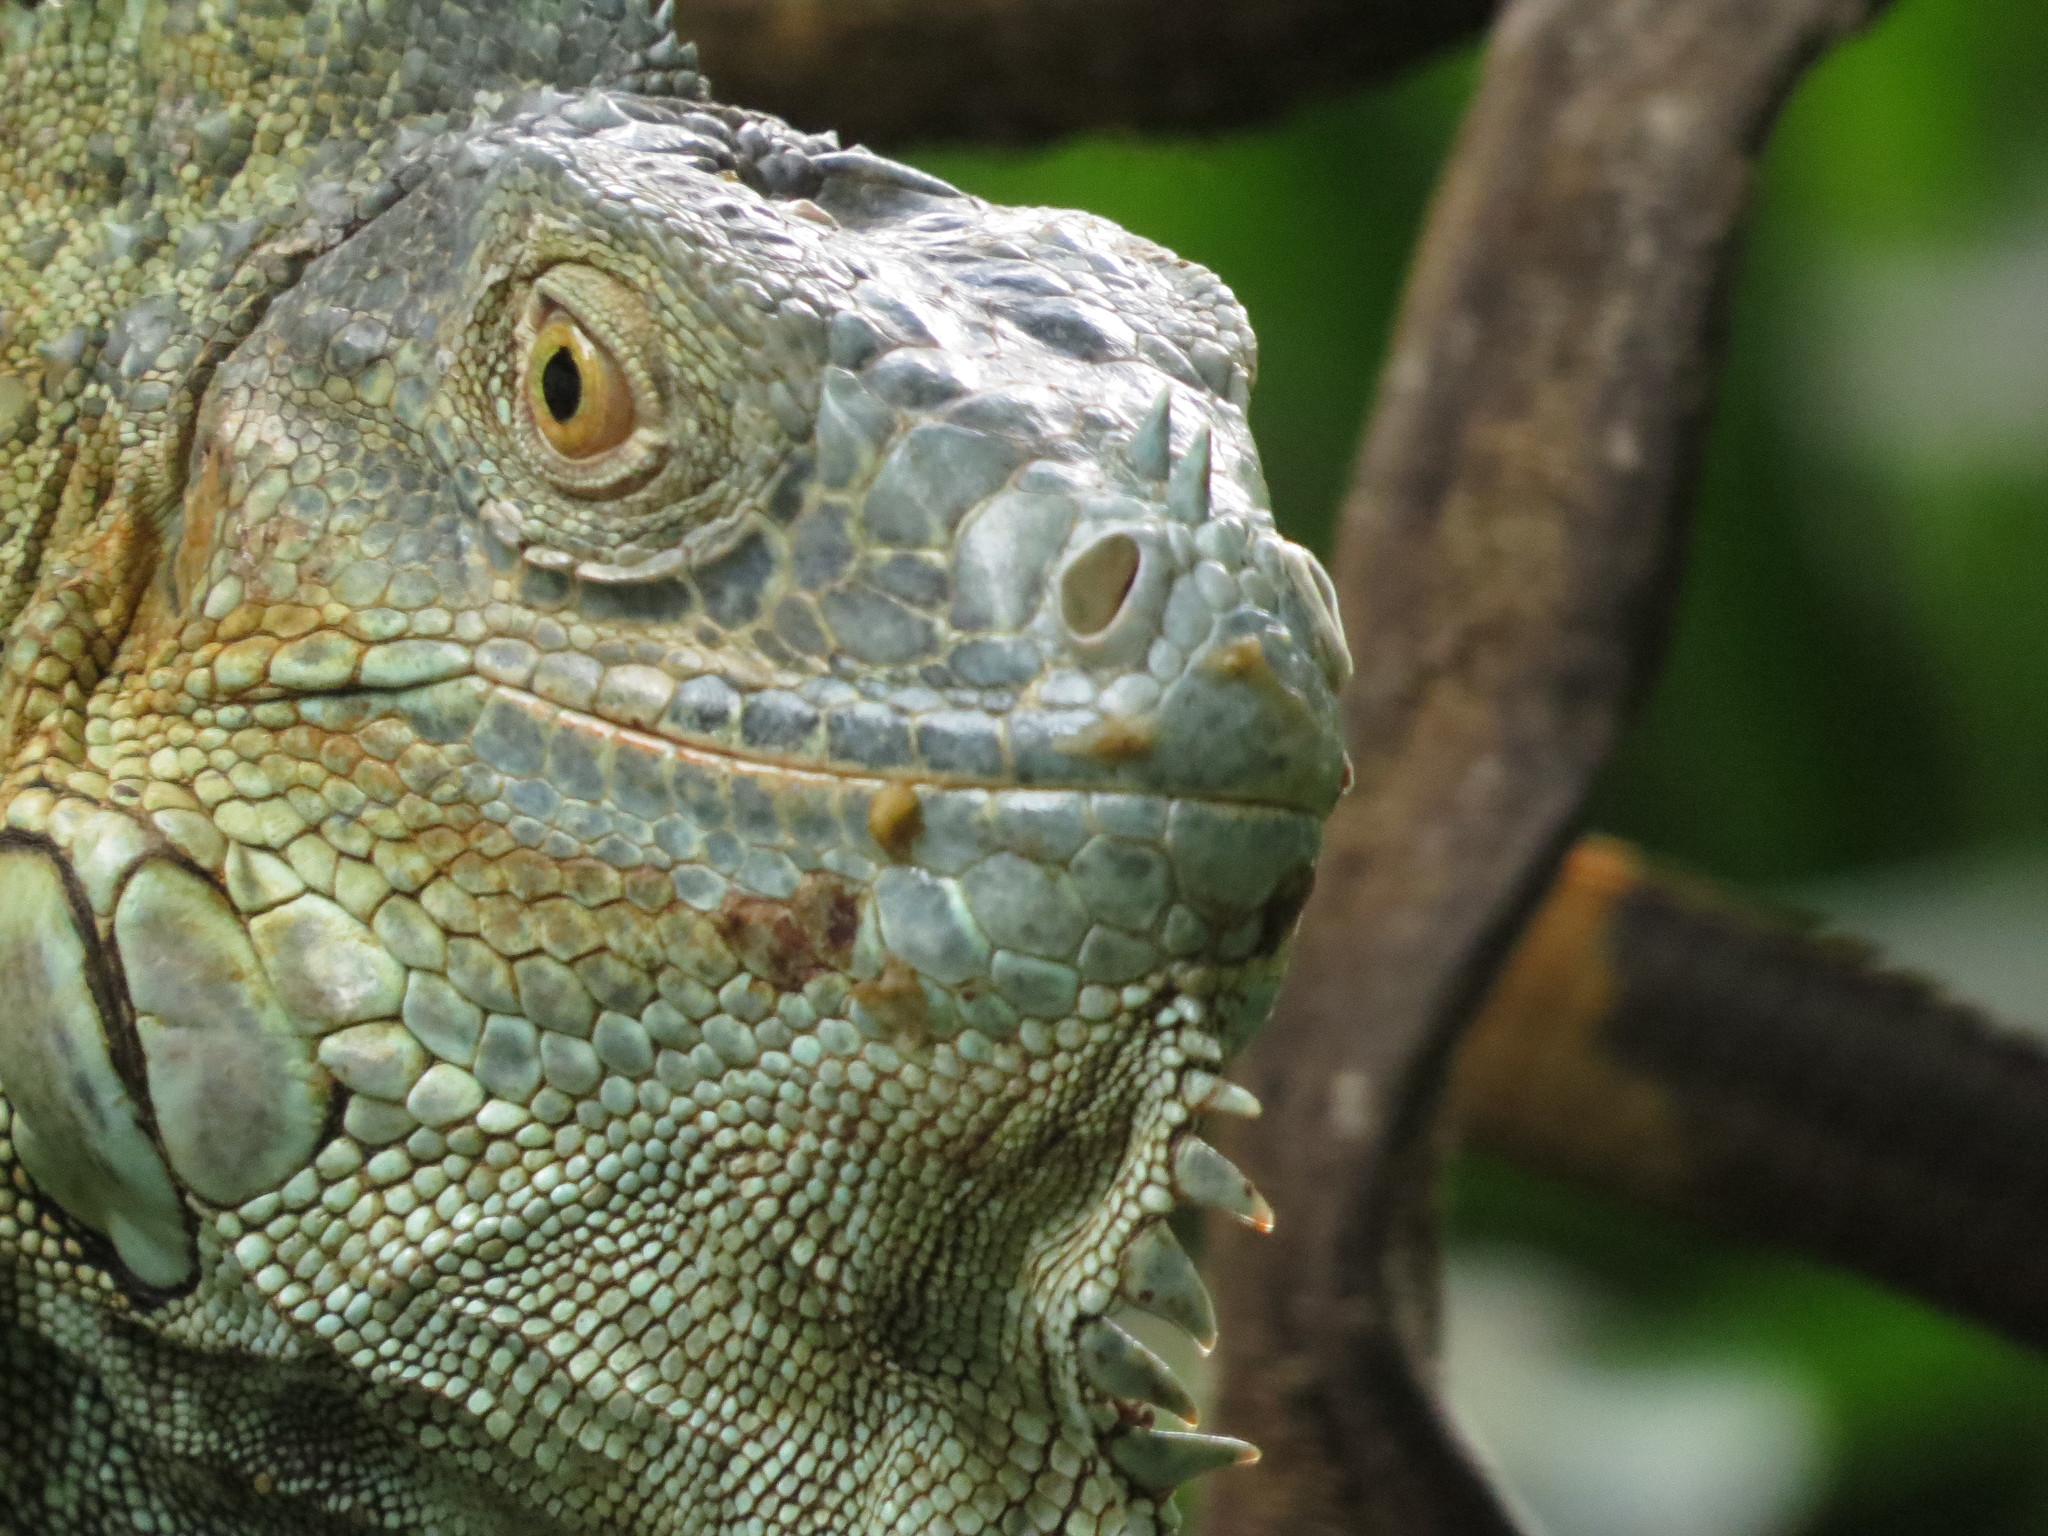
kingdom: Animalia
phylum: Chordata
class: Squamata
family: Iguanidae
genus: Iguana
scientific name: Iguana iguana
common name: Green iguana
